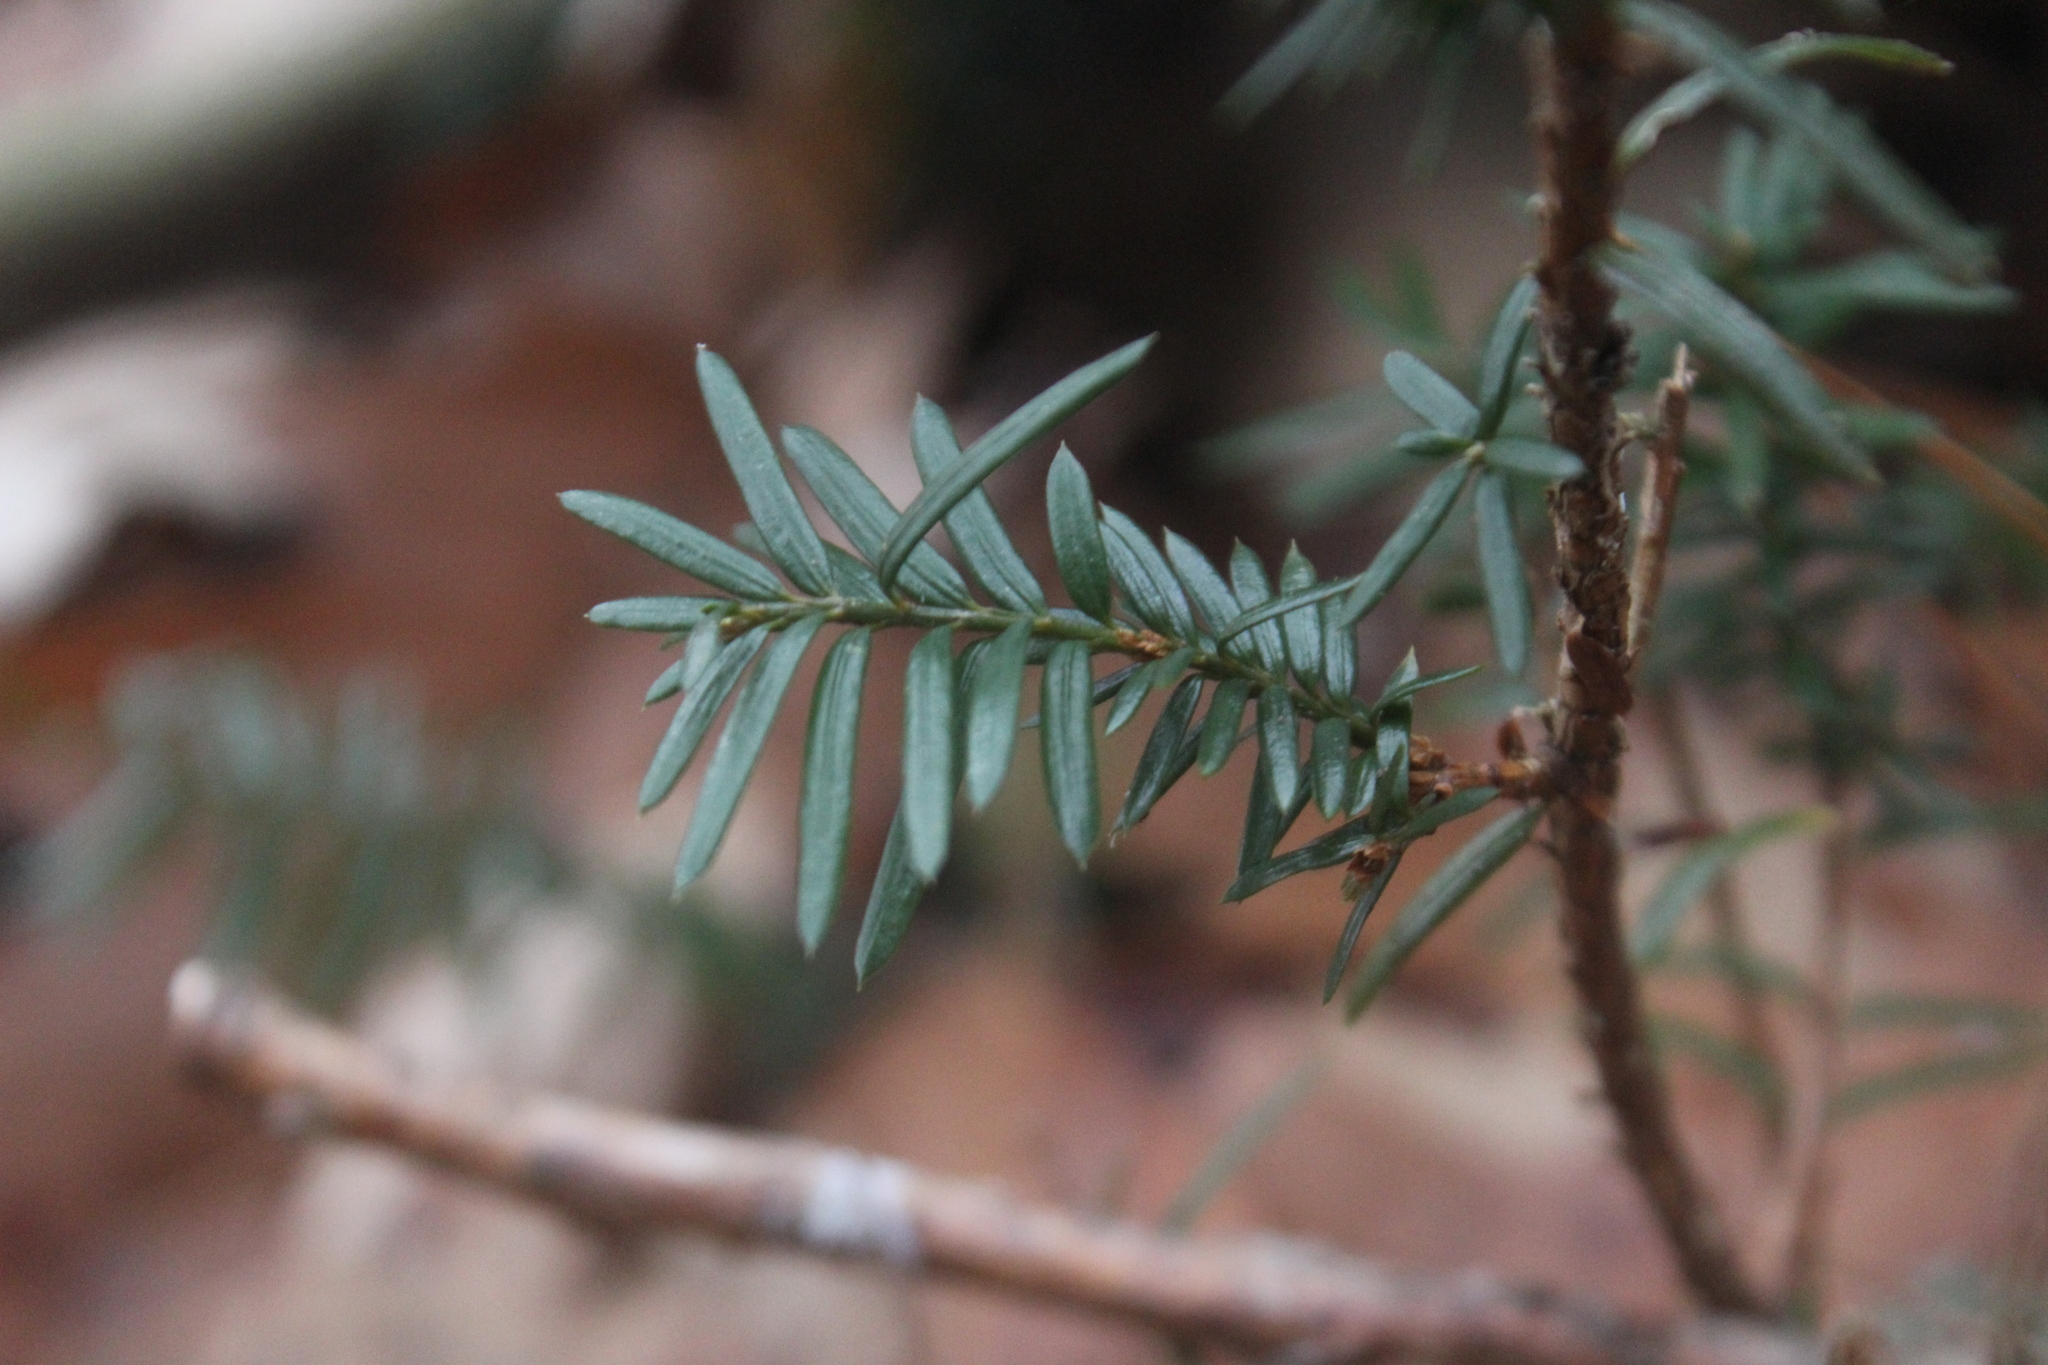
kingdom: Plantae
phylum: Tracheophyta
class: Pinopsida
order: Pinales
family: Pinaceae
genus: Tsuga
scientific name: Tsuga canadensis
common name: Eastern hemlock
